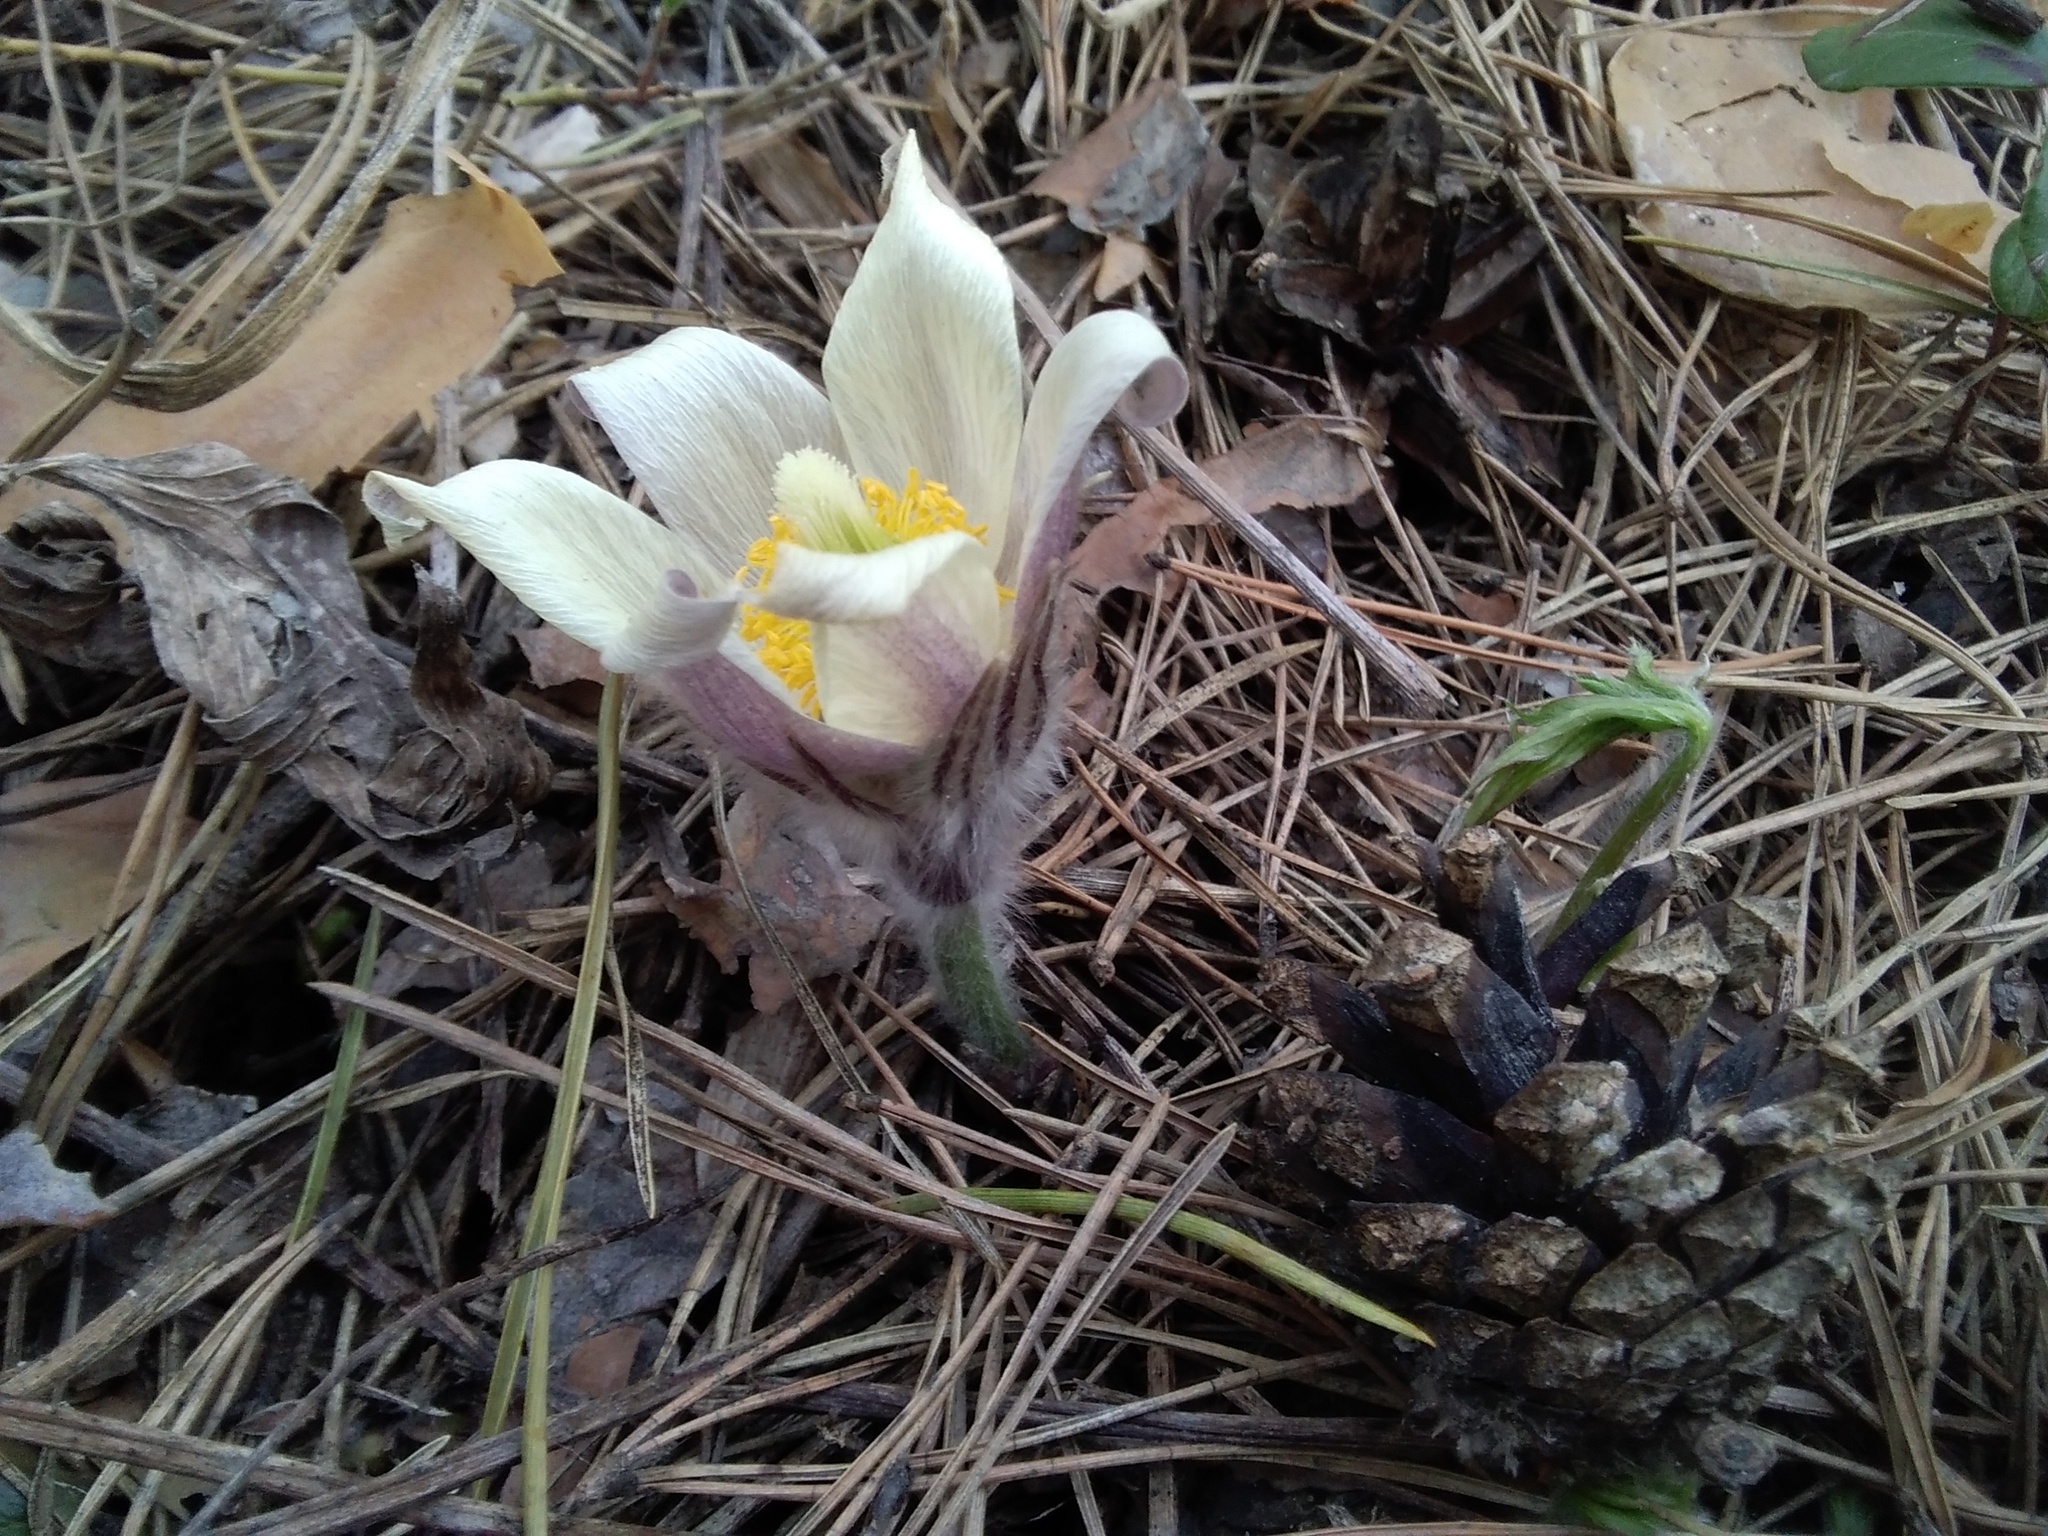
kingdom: Plantae
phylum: Tracheophyta
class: Magnoliopsida
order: Ranunculales
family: Ranunculaceae
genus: Pulsatilla
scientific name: Pulsatilla patens
